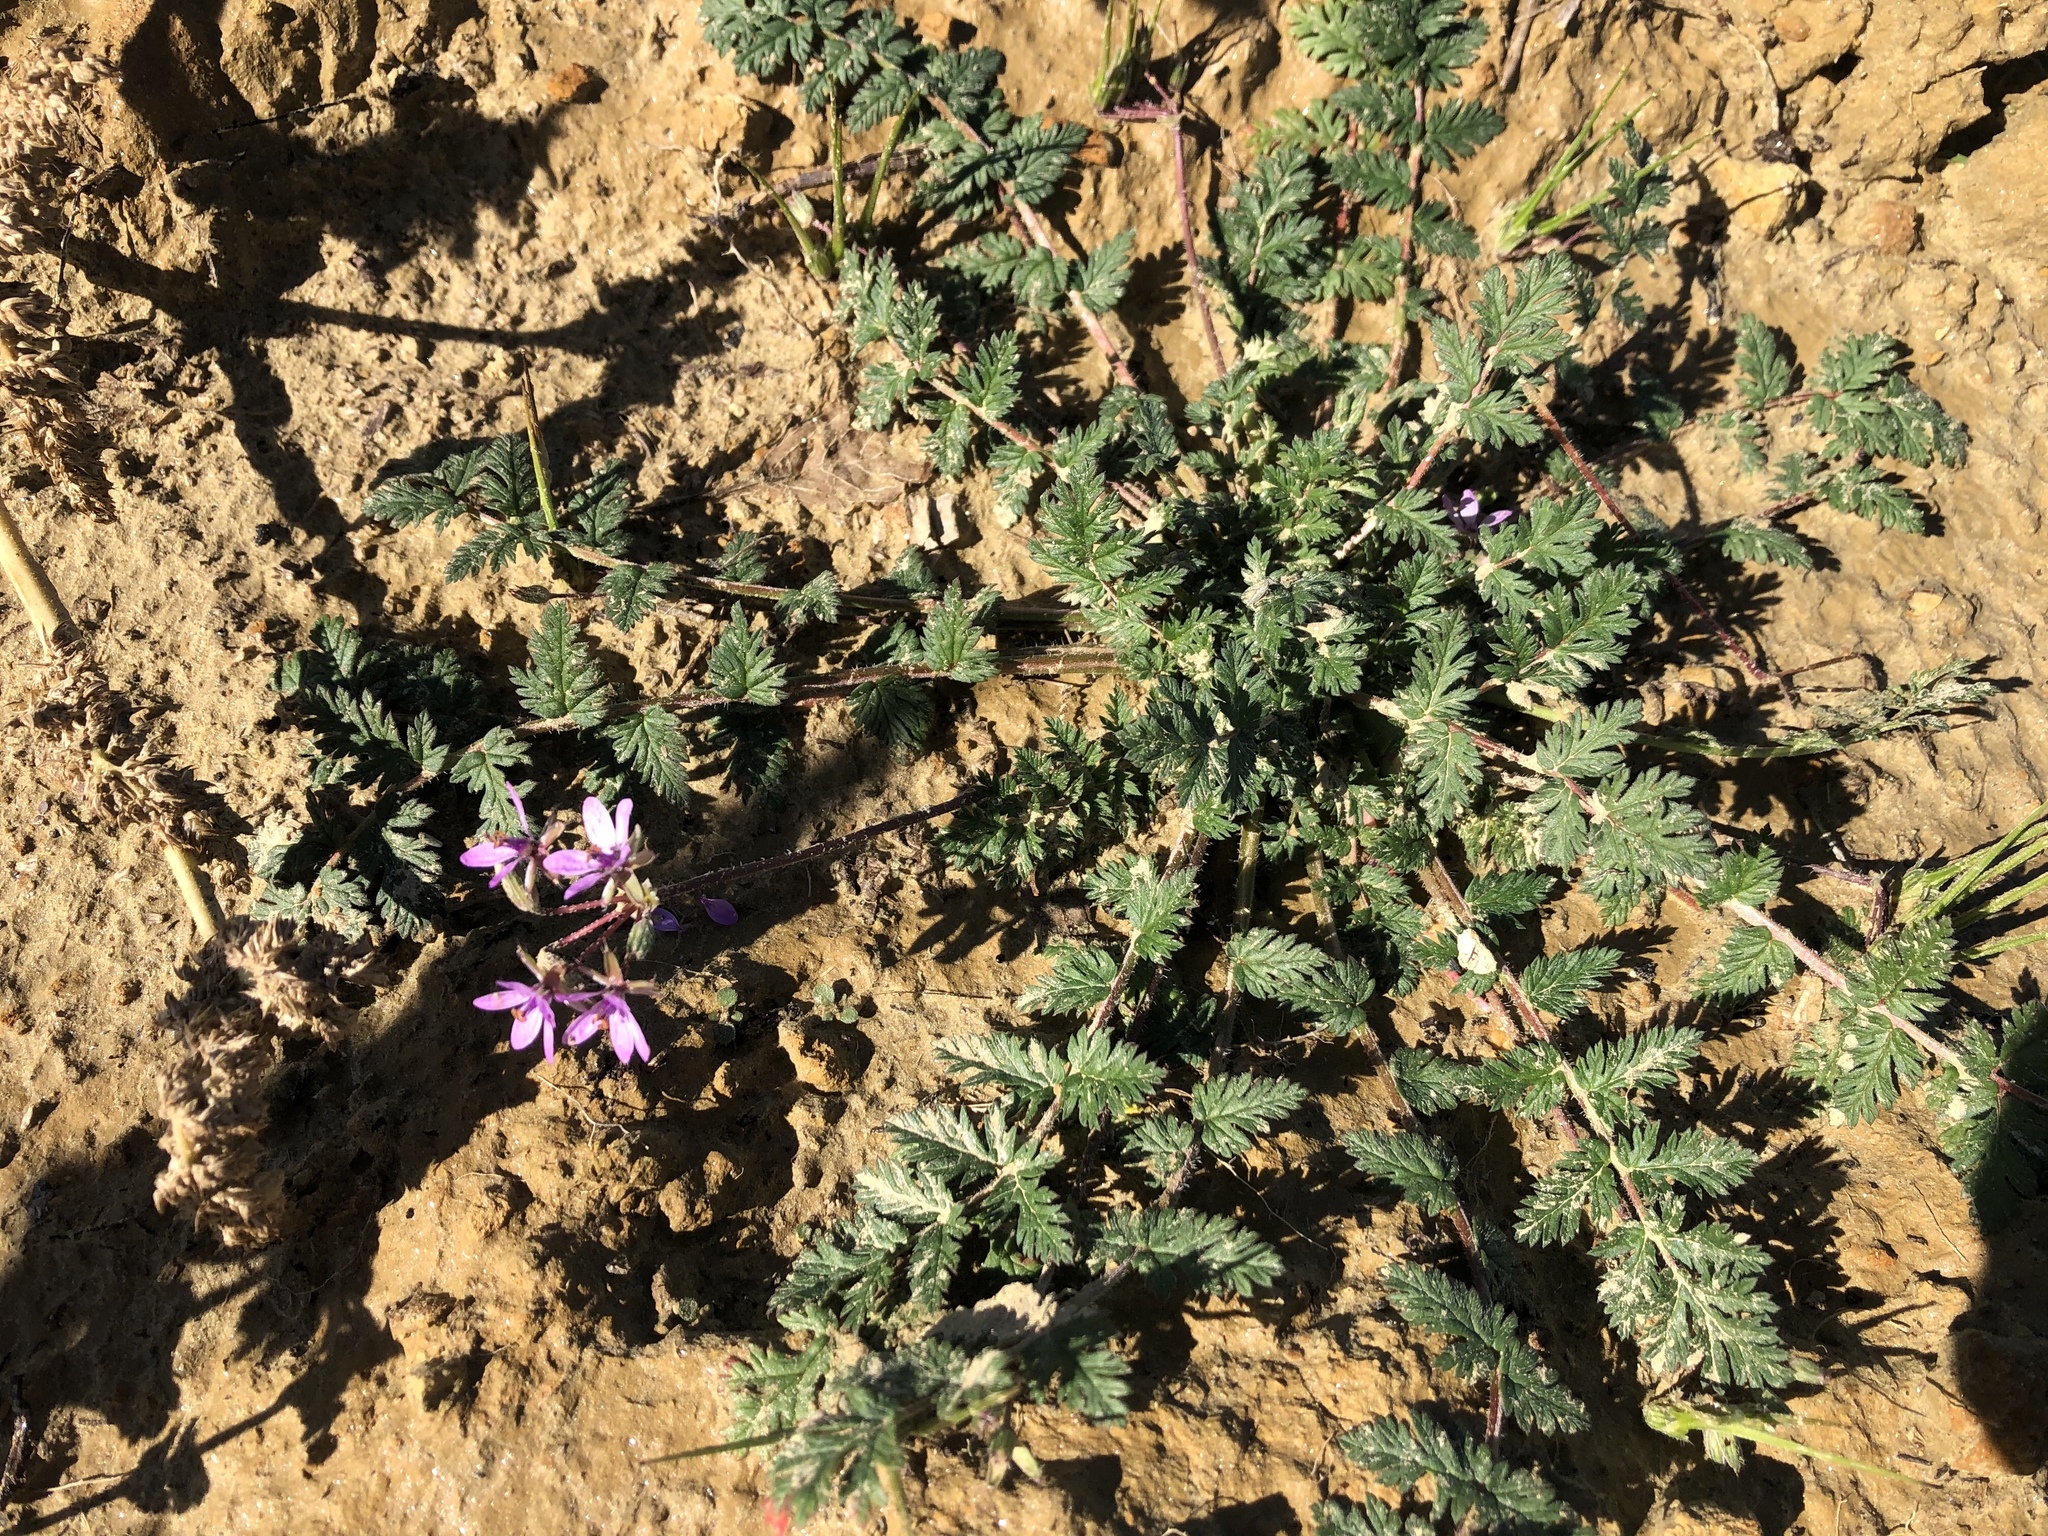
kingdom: Plantae
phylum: Tracheophyta
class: Magnoliopsida
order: Geraniales
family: Geraniaceae
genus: Erodium
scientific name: Erodium cicutarium
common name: Common stork's-bill
